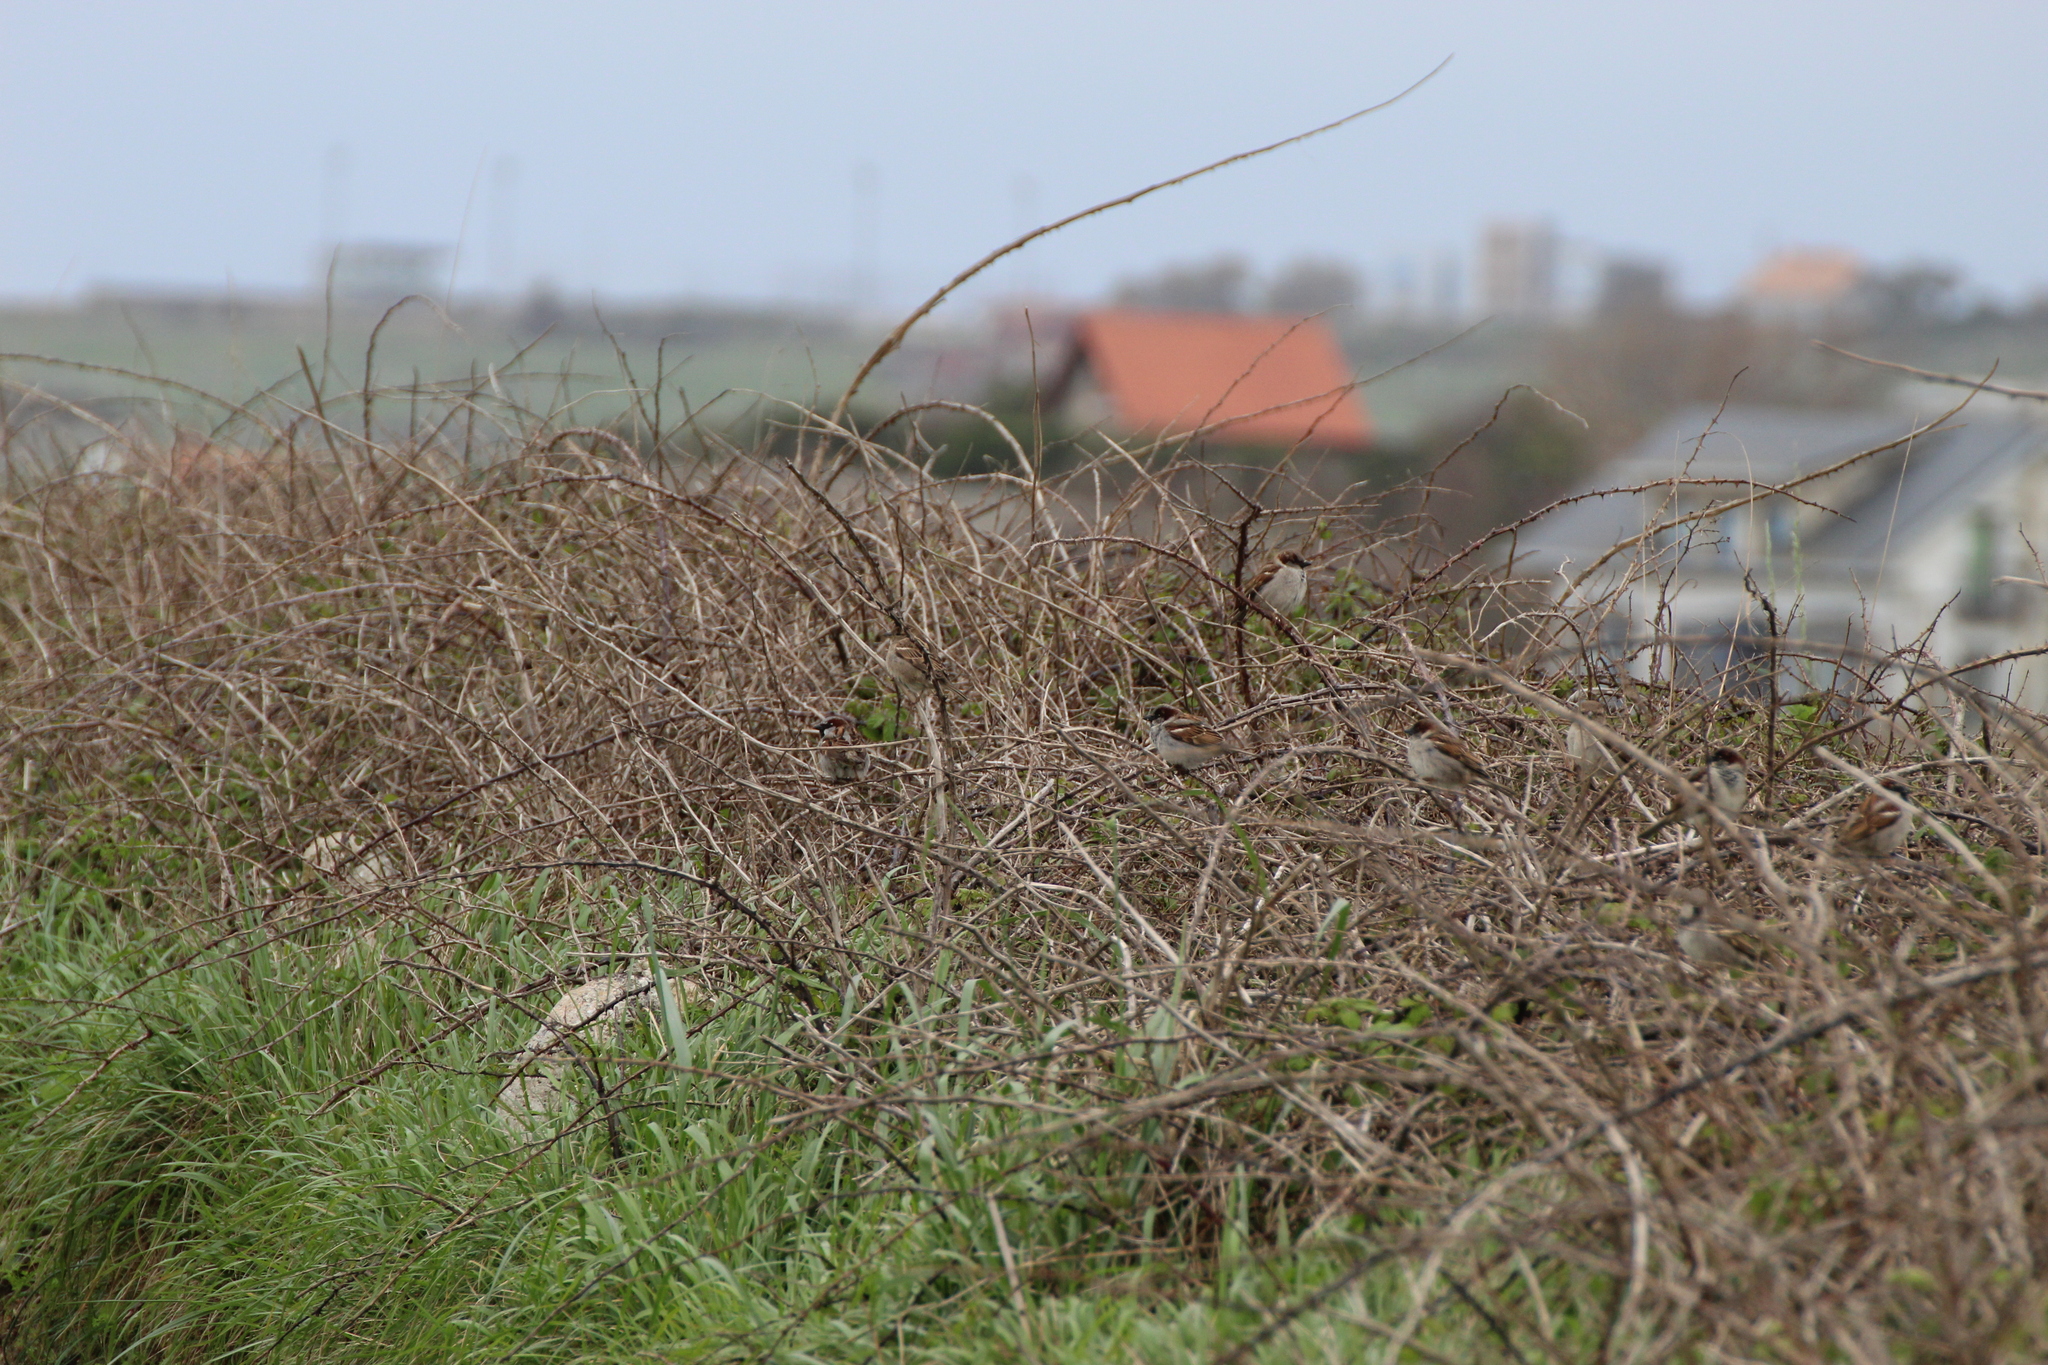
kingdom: Animalia
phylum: Chordata
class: Aves
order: Passeriformes
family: Passeridae
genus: Passer
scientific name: Passer domesticus
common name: House sparrow
